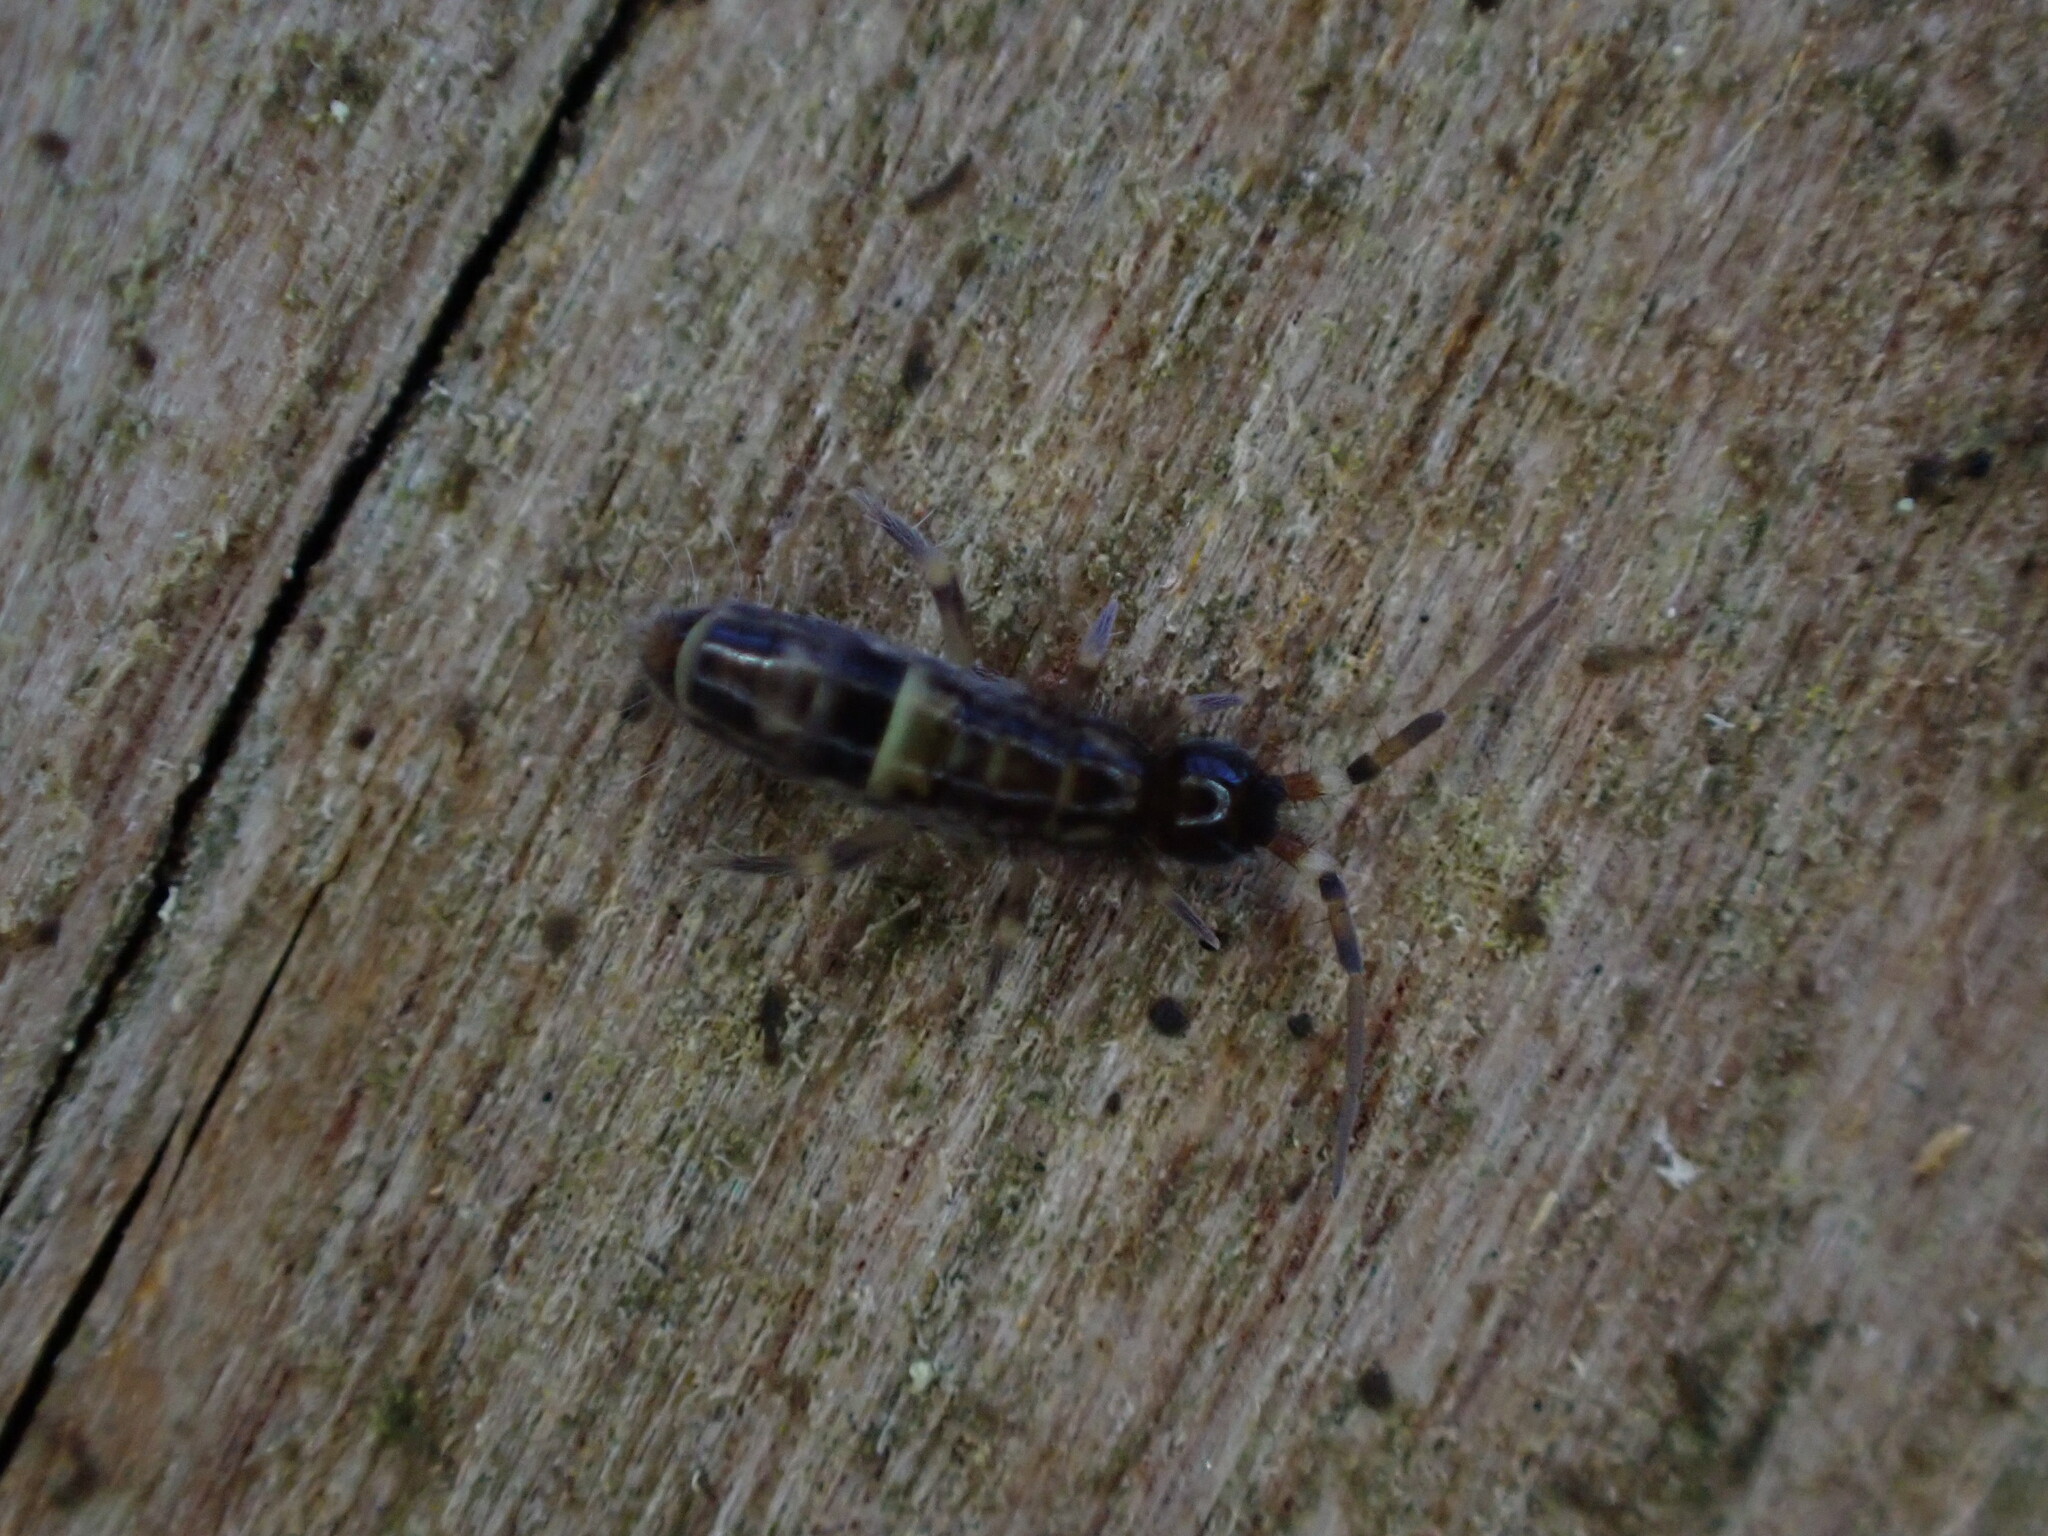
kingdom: Animalia
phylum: Arthropoda
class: Collembola
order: Entomobryomorpha
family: Orchesellidae
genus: Orchesella
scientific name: Orchesella cincta
